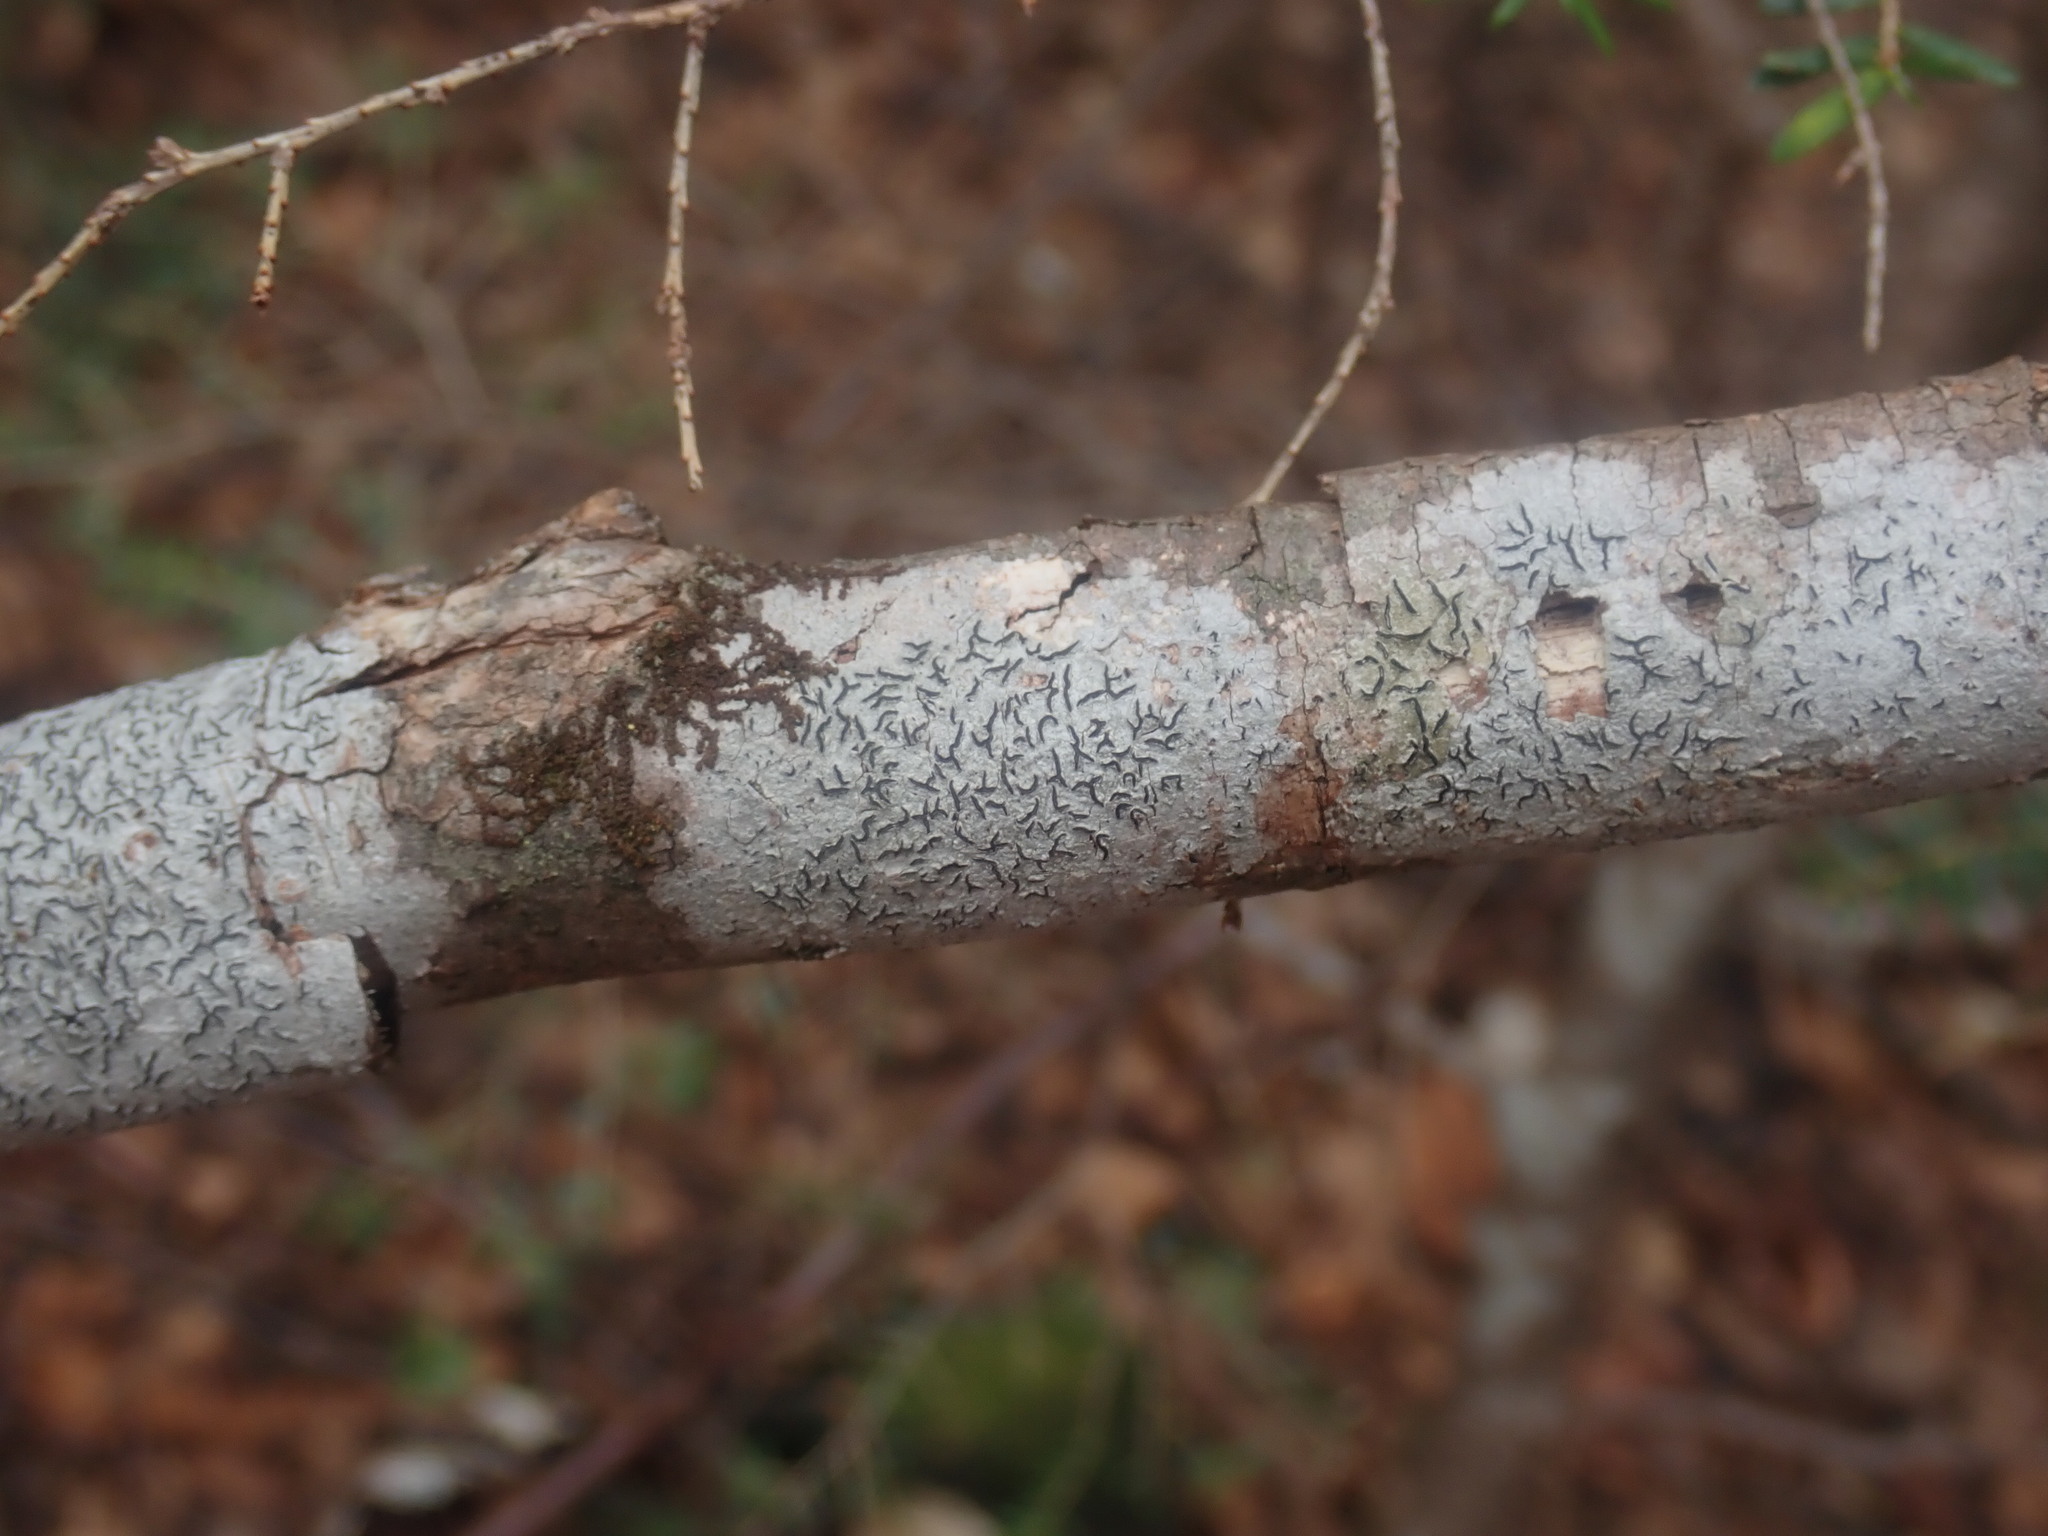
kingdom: Fungi
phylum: Ascomycota
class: Lecanoromycetes
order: Ostropales
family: Graphidaceae
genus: Graphis
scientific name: Graphis scripta
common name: Script lichen
